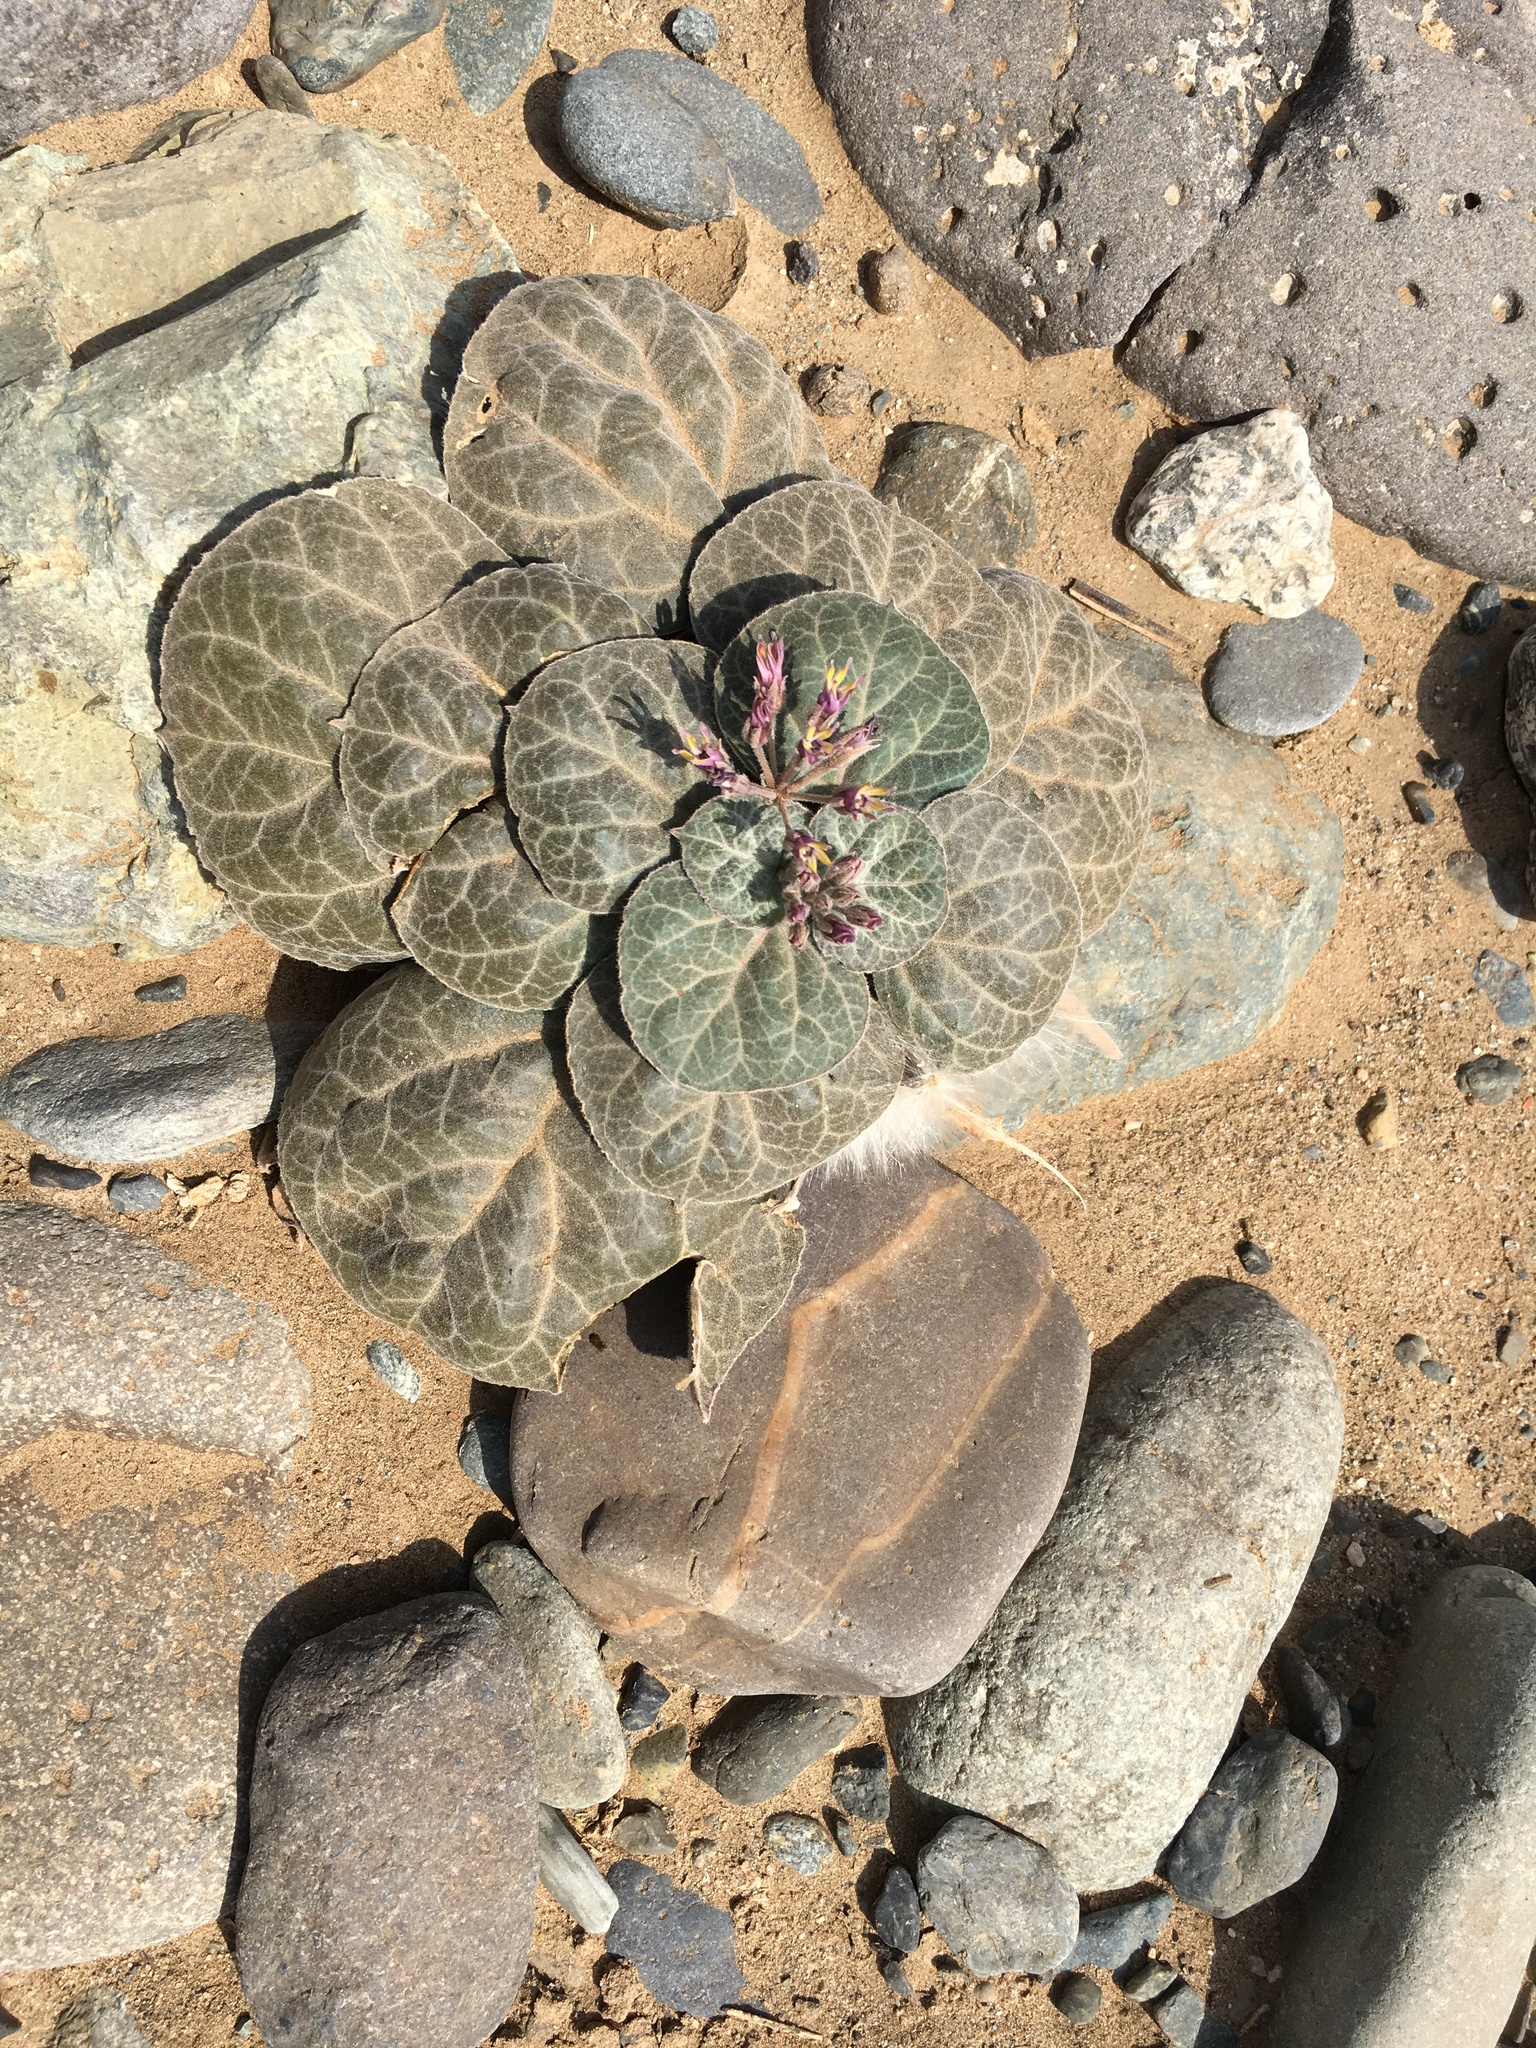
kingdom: Plantae
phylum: Tracheophyta
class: Magnoliopsida
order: Gentianales
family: Apocynaceae
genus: Cynanchum
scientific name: Cynanchum radians
